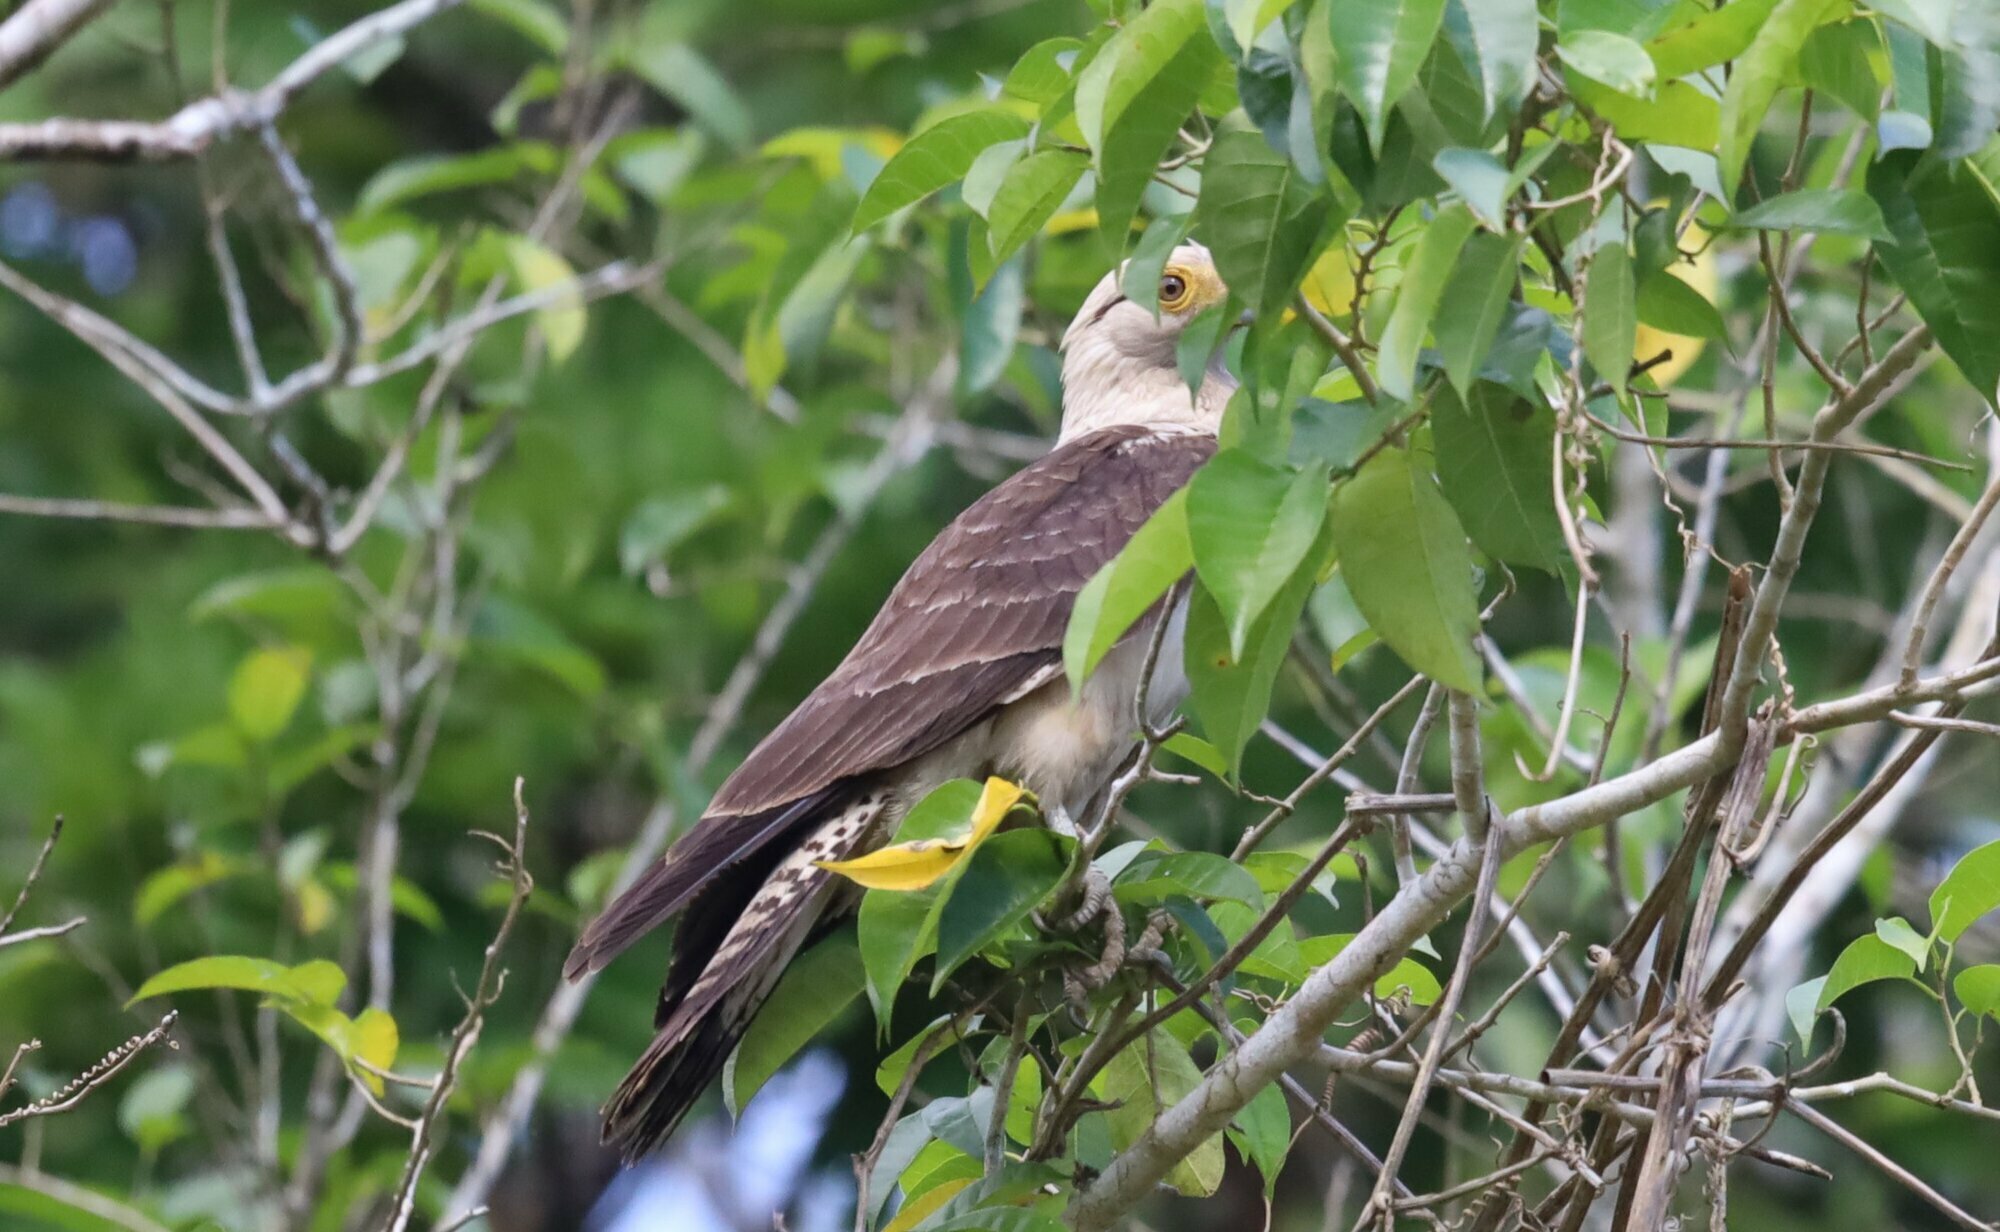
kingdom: Animalia
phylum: Chordata
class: Aves
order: Falconiformes
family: Falconidae
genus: Daptrius
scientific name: Daptrius
